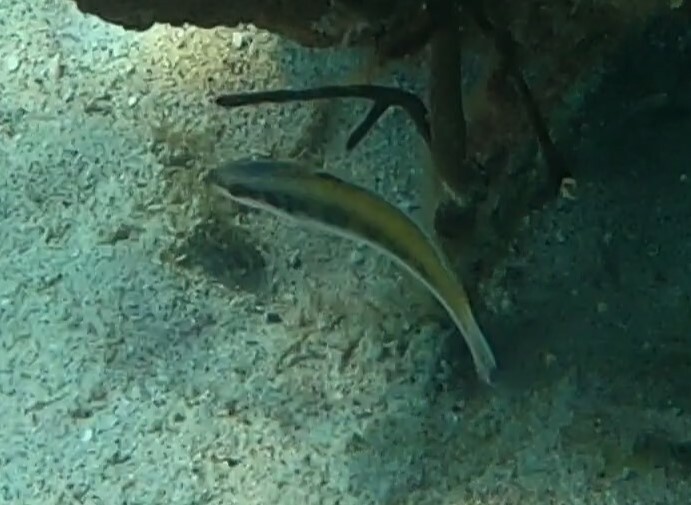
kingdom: Animalia
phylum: Chordata
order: Perciformes
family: Labridae
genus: Thalassoma
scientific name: Thalassoma bifasciatum
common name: Bluehead wrasse
